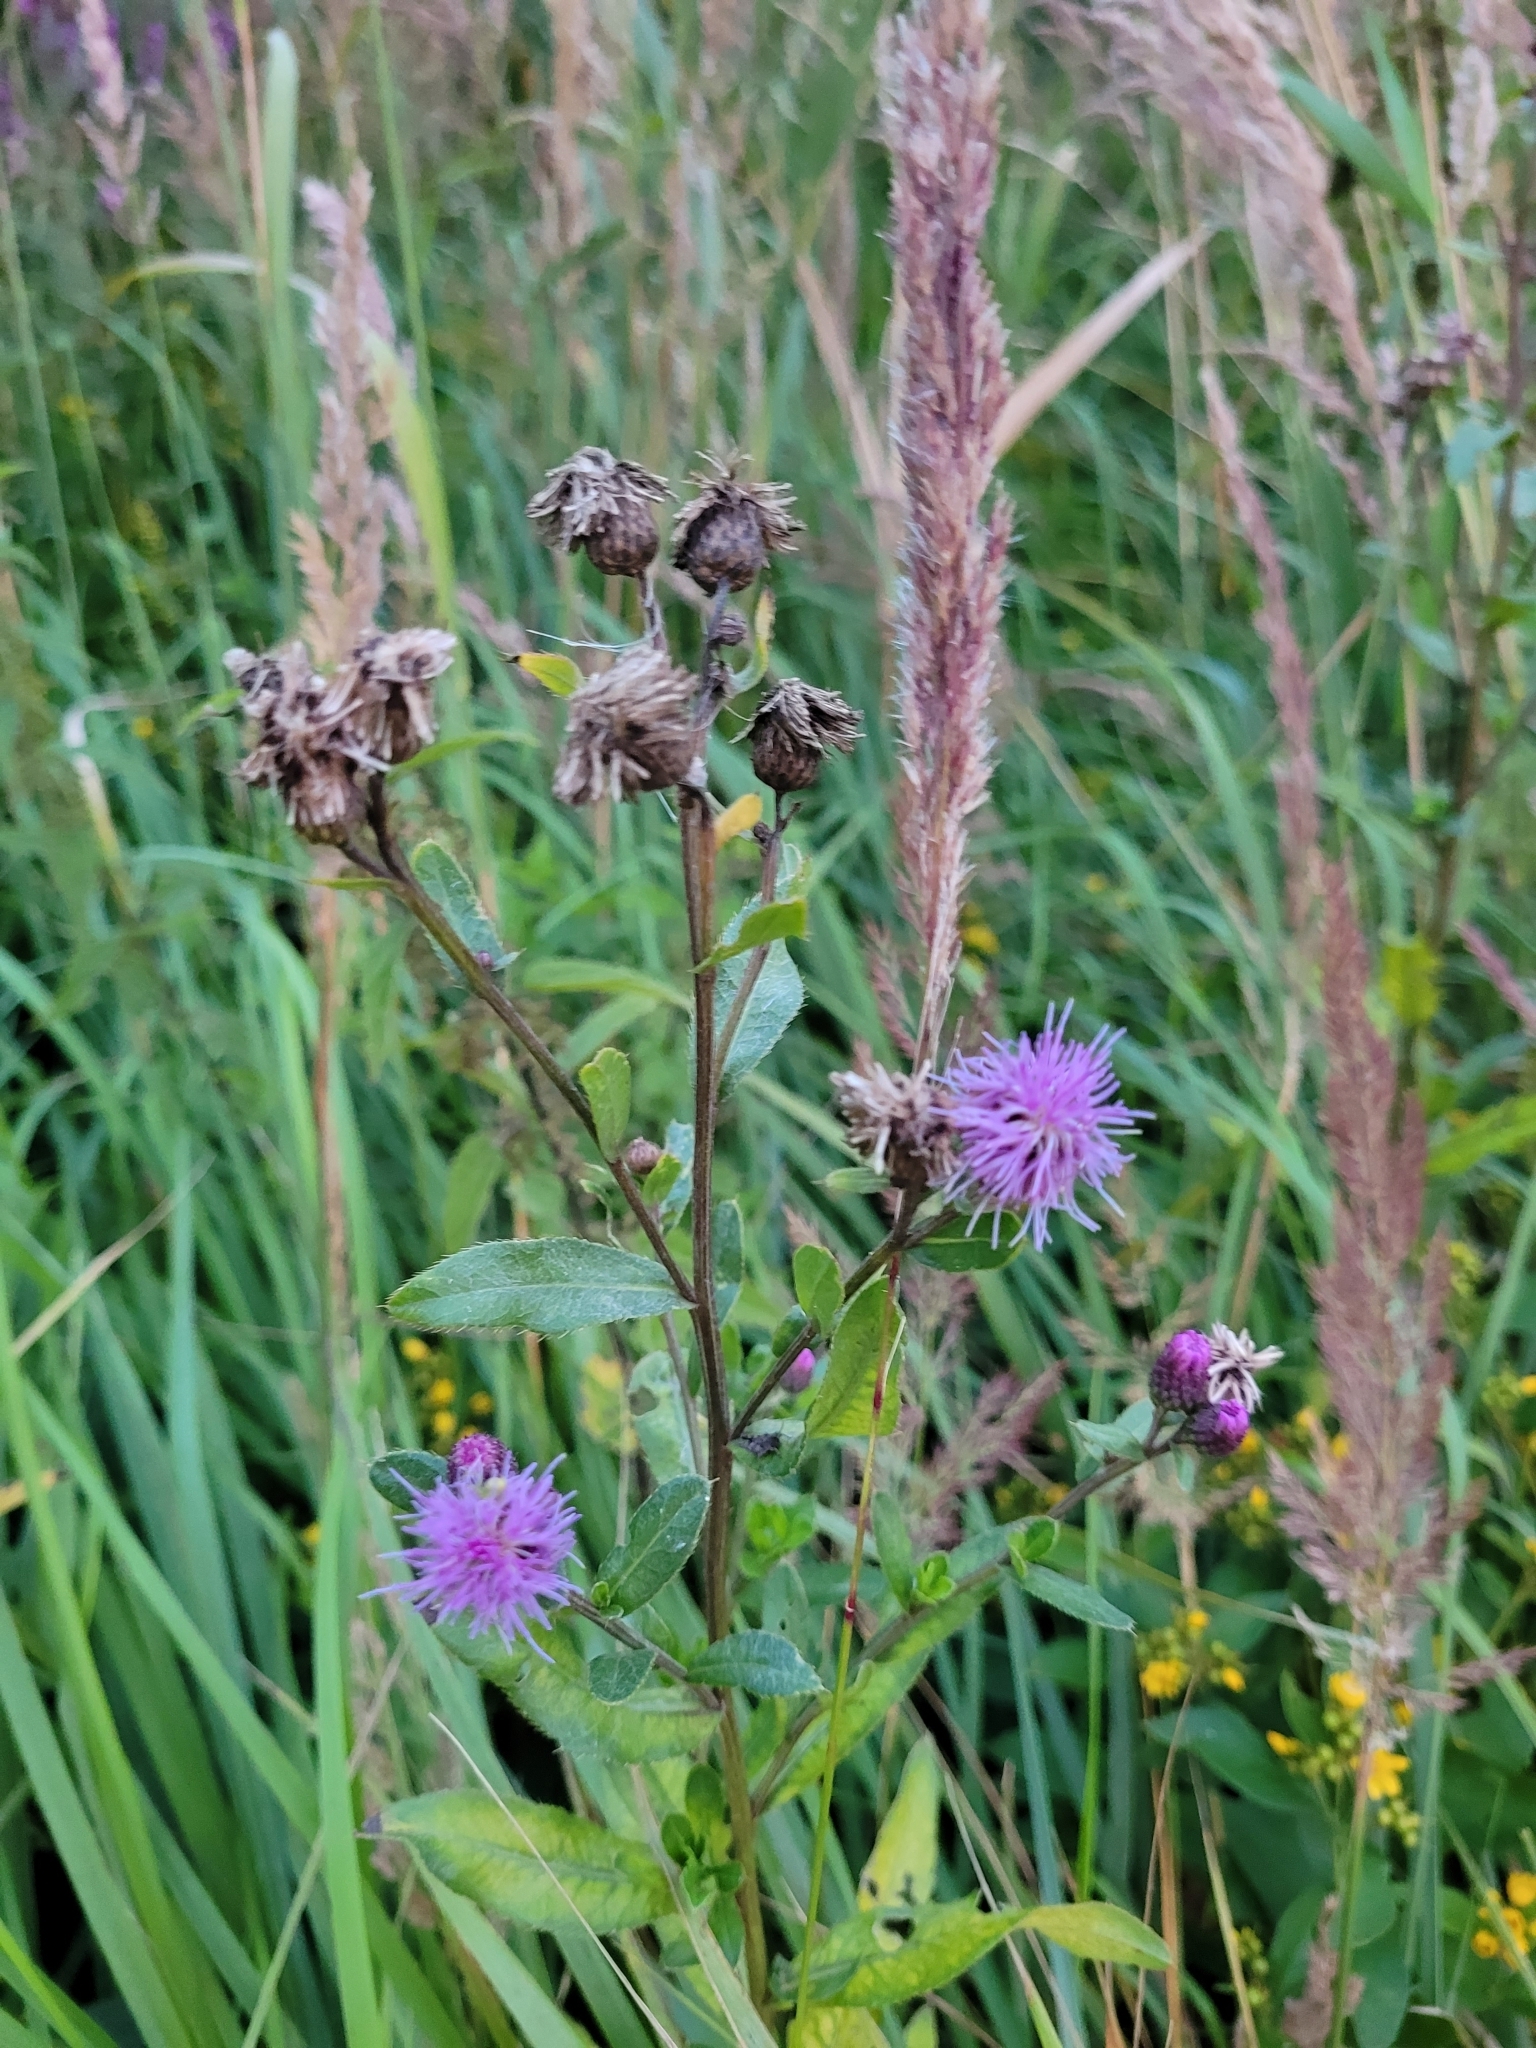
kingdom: Plantae
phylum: Tracheophyta
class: Magnoliopsida
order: Asterales
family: Asteraceae
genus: Cirsium
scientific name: Cirsium arvense
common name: Creeping thistle
